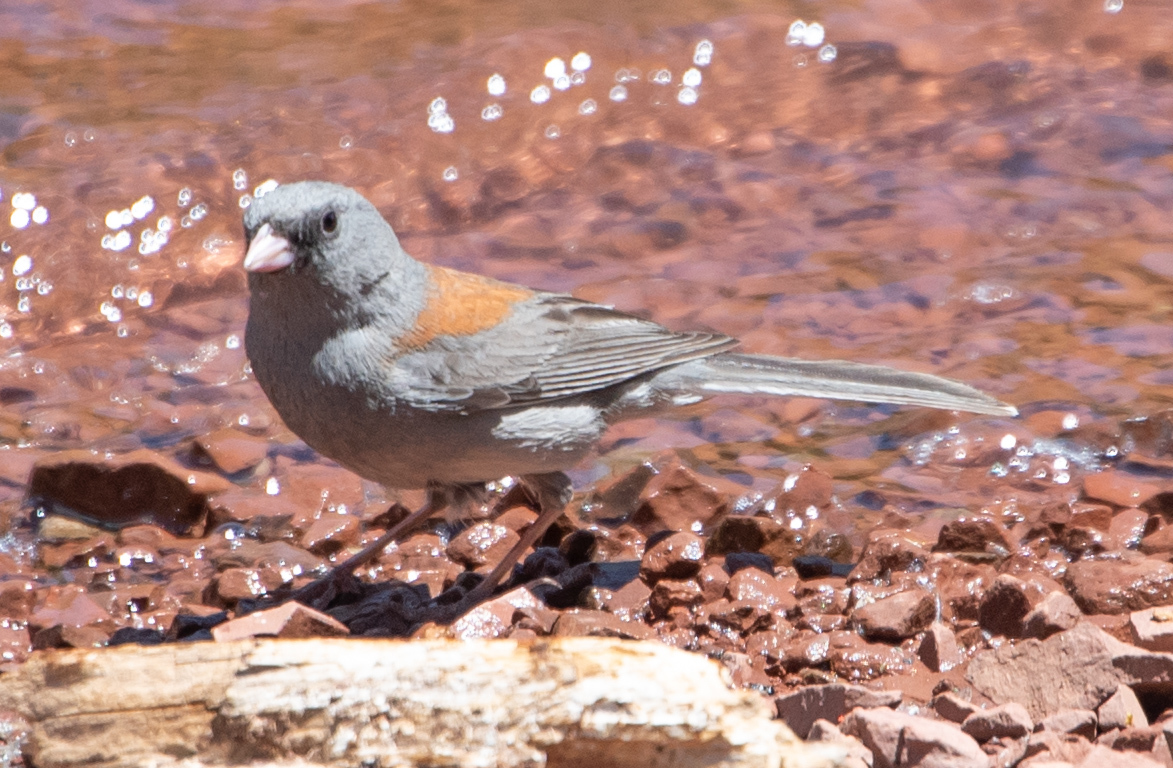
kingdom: Animalia
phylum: Chordata
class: Aves
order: Passeriformes
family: Passerellidae
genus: Junco
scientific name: Junco hyemalis
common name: Dark-eyed junco
